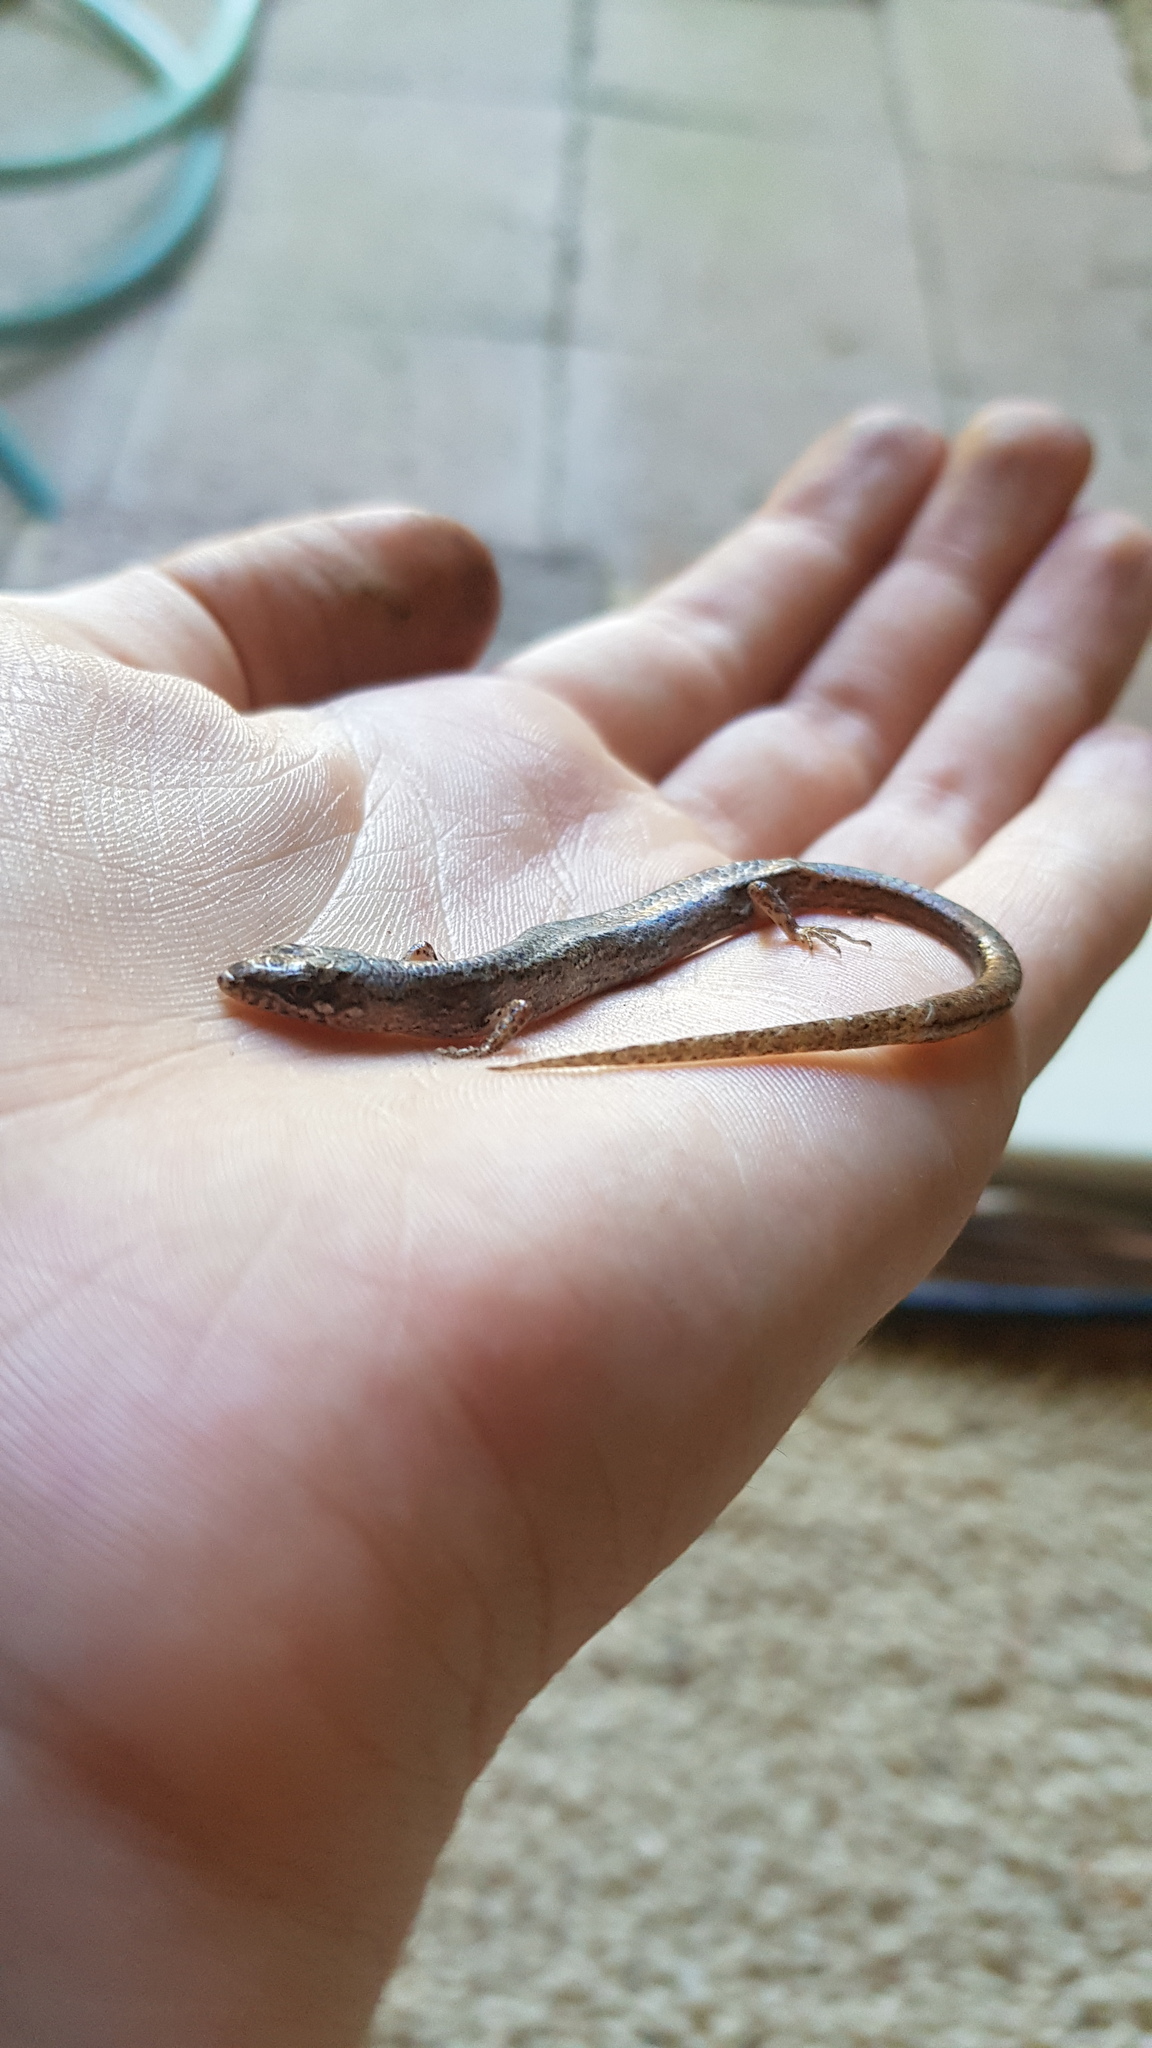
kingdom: Animalia
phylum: Chordata
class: Squamata
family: Scincidae
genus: Saproscincus
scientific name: Saproscincus mustelinus
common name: Southern weasel skink
